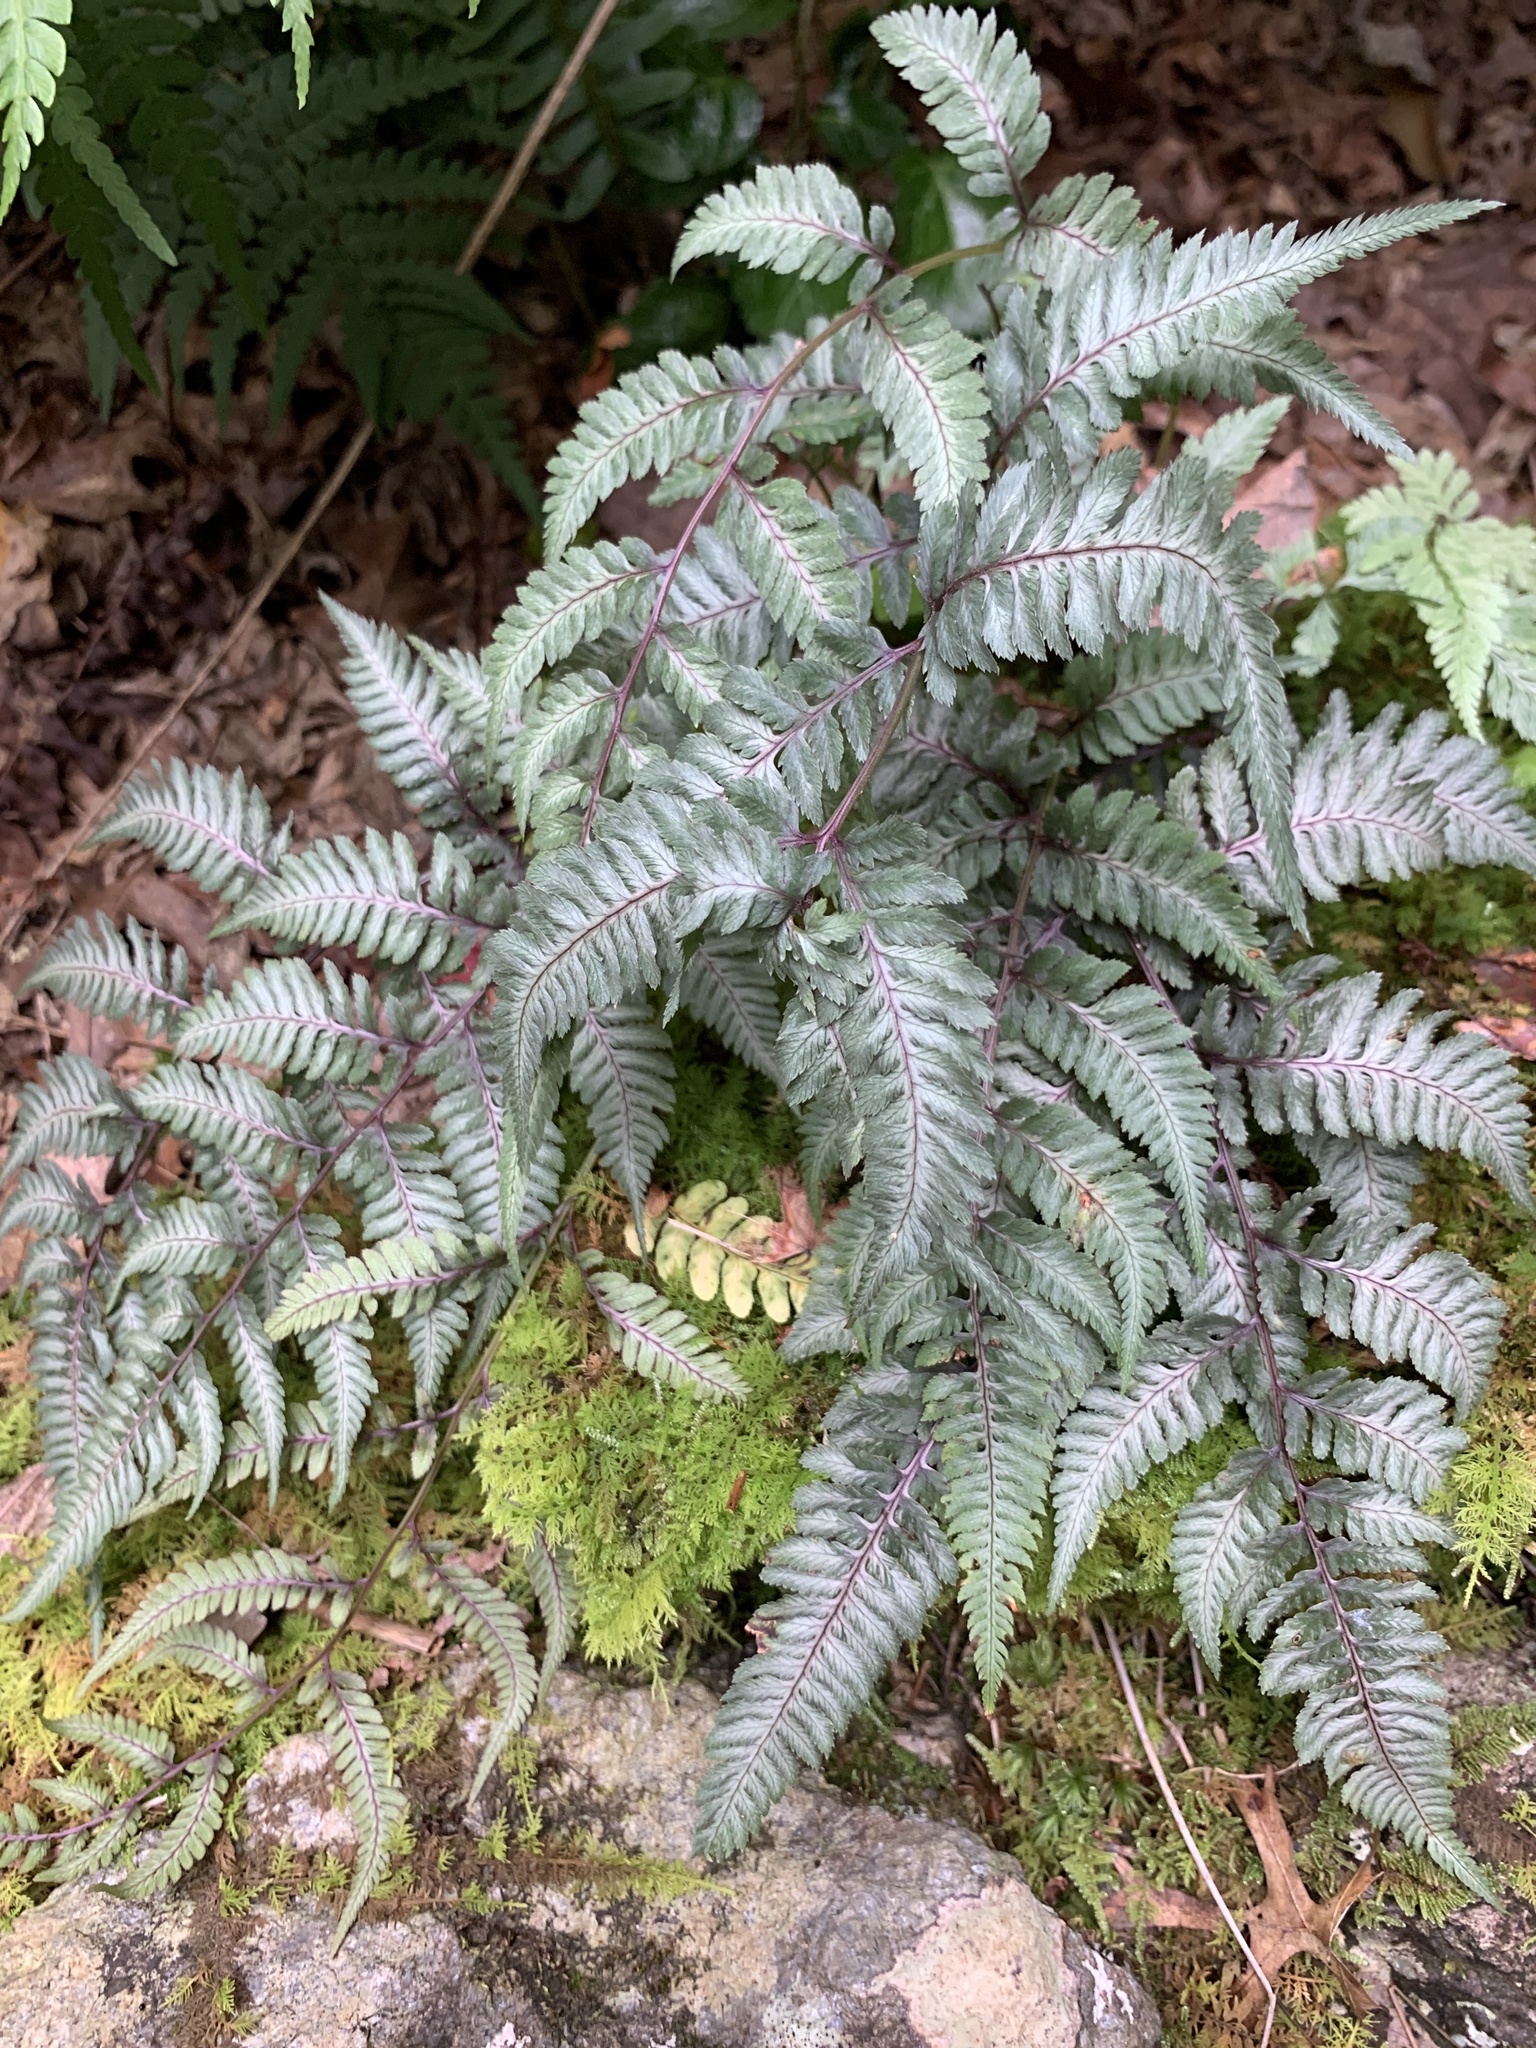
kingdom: Plantae
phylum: Tracheophyta
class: Polypodiopsida
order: Polypodiales
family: Athyriaceae
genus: Anisocampium
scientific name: Anisocampium niponicum
